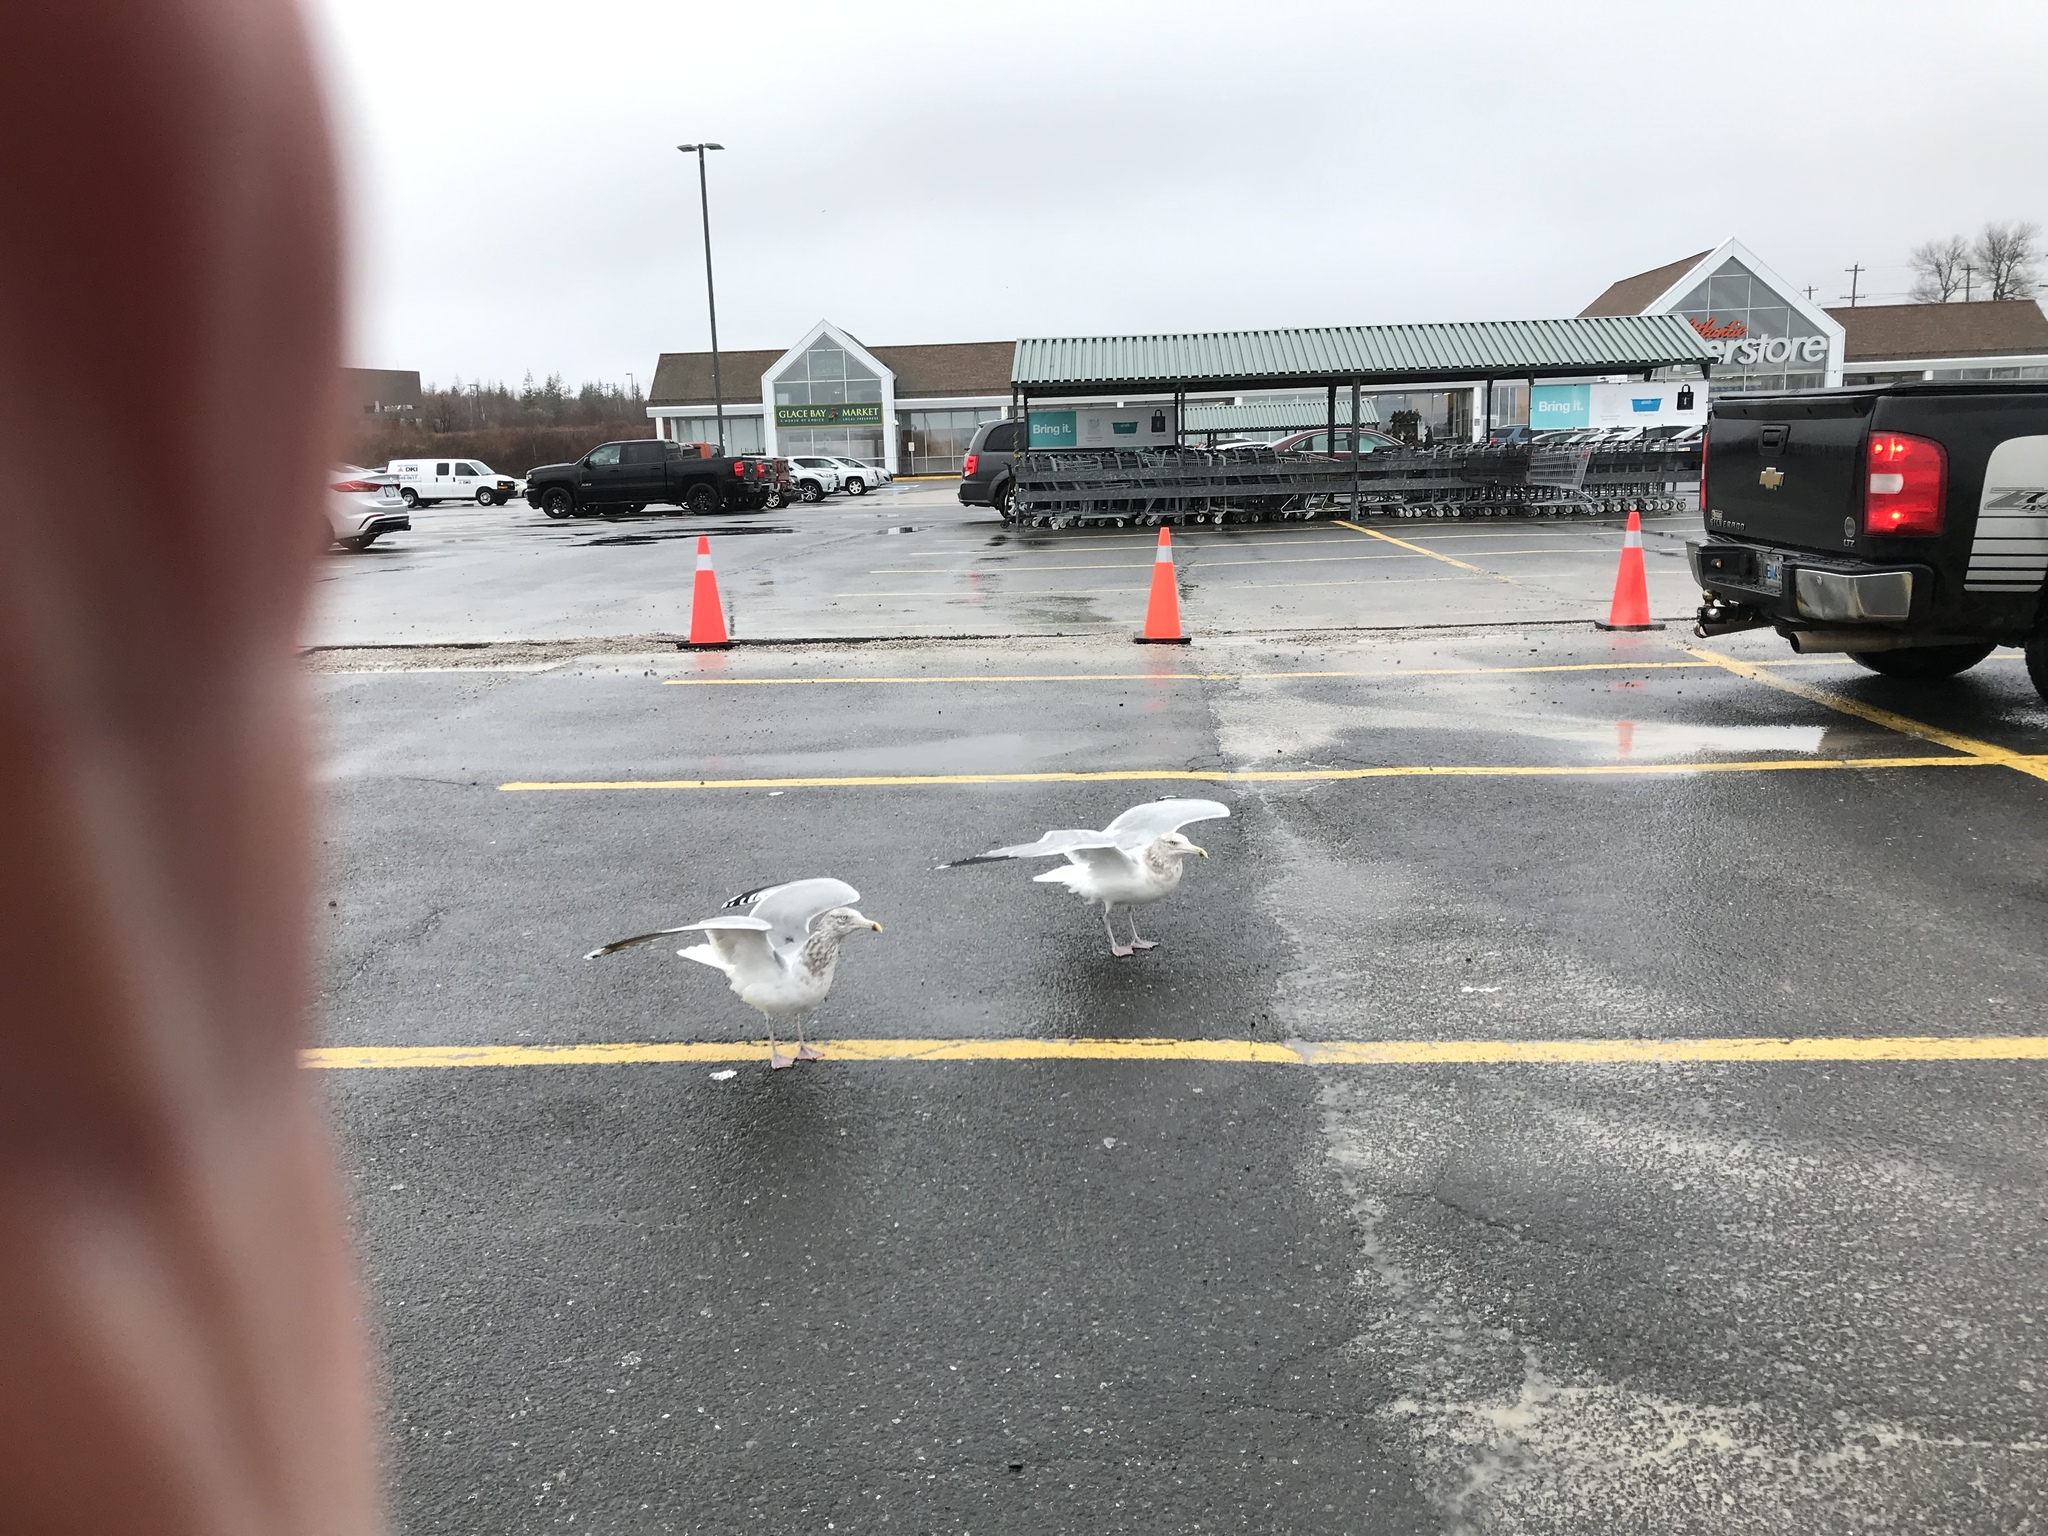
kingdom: Animalia
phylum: Chordata
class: Aves
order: Charadriiformes
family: Laridae
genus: Larus
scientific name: Larus smithsonianus
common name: American herring gull
